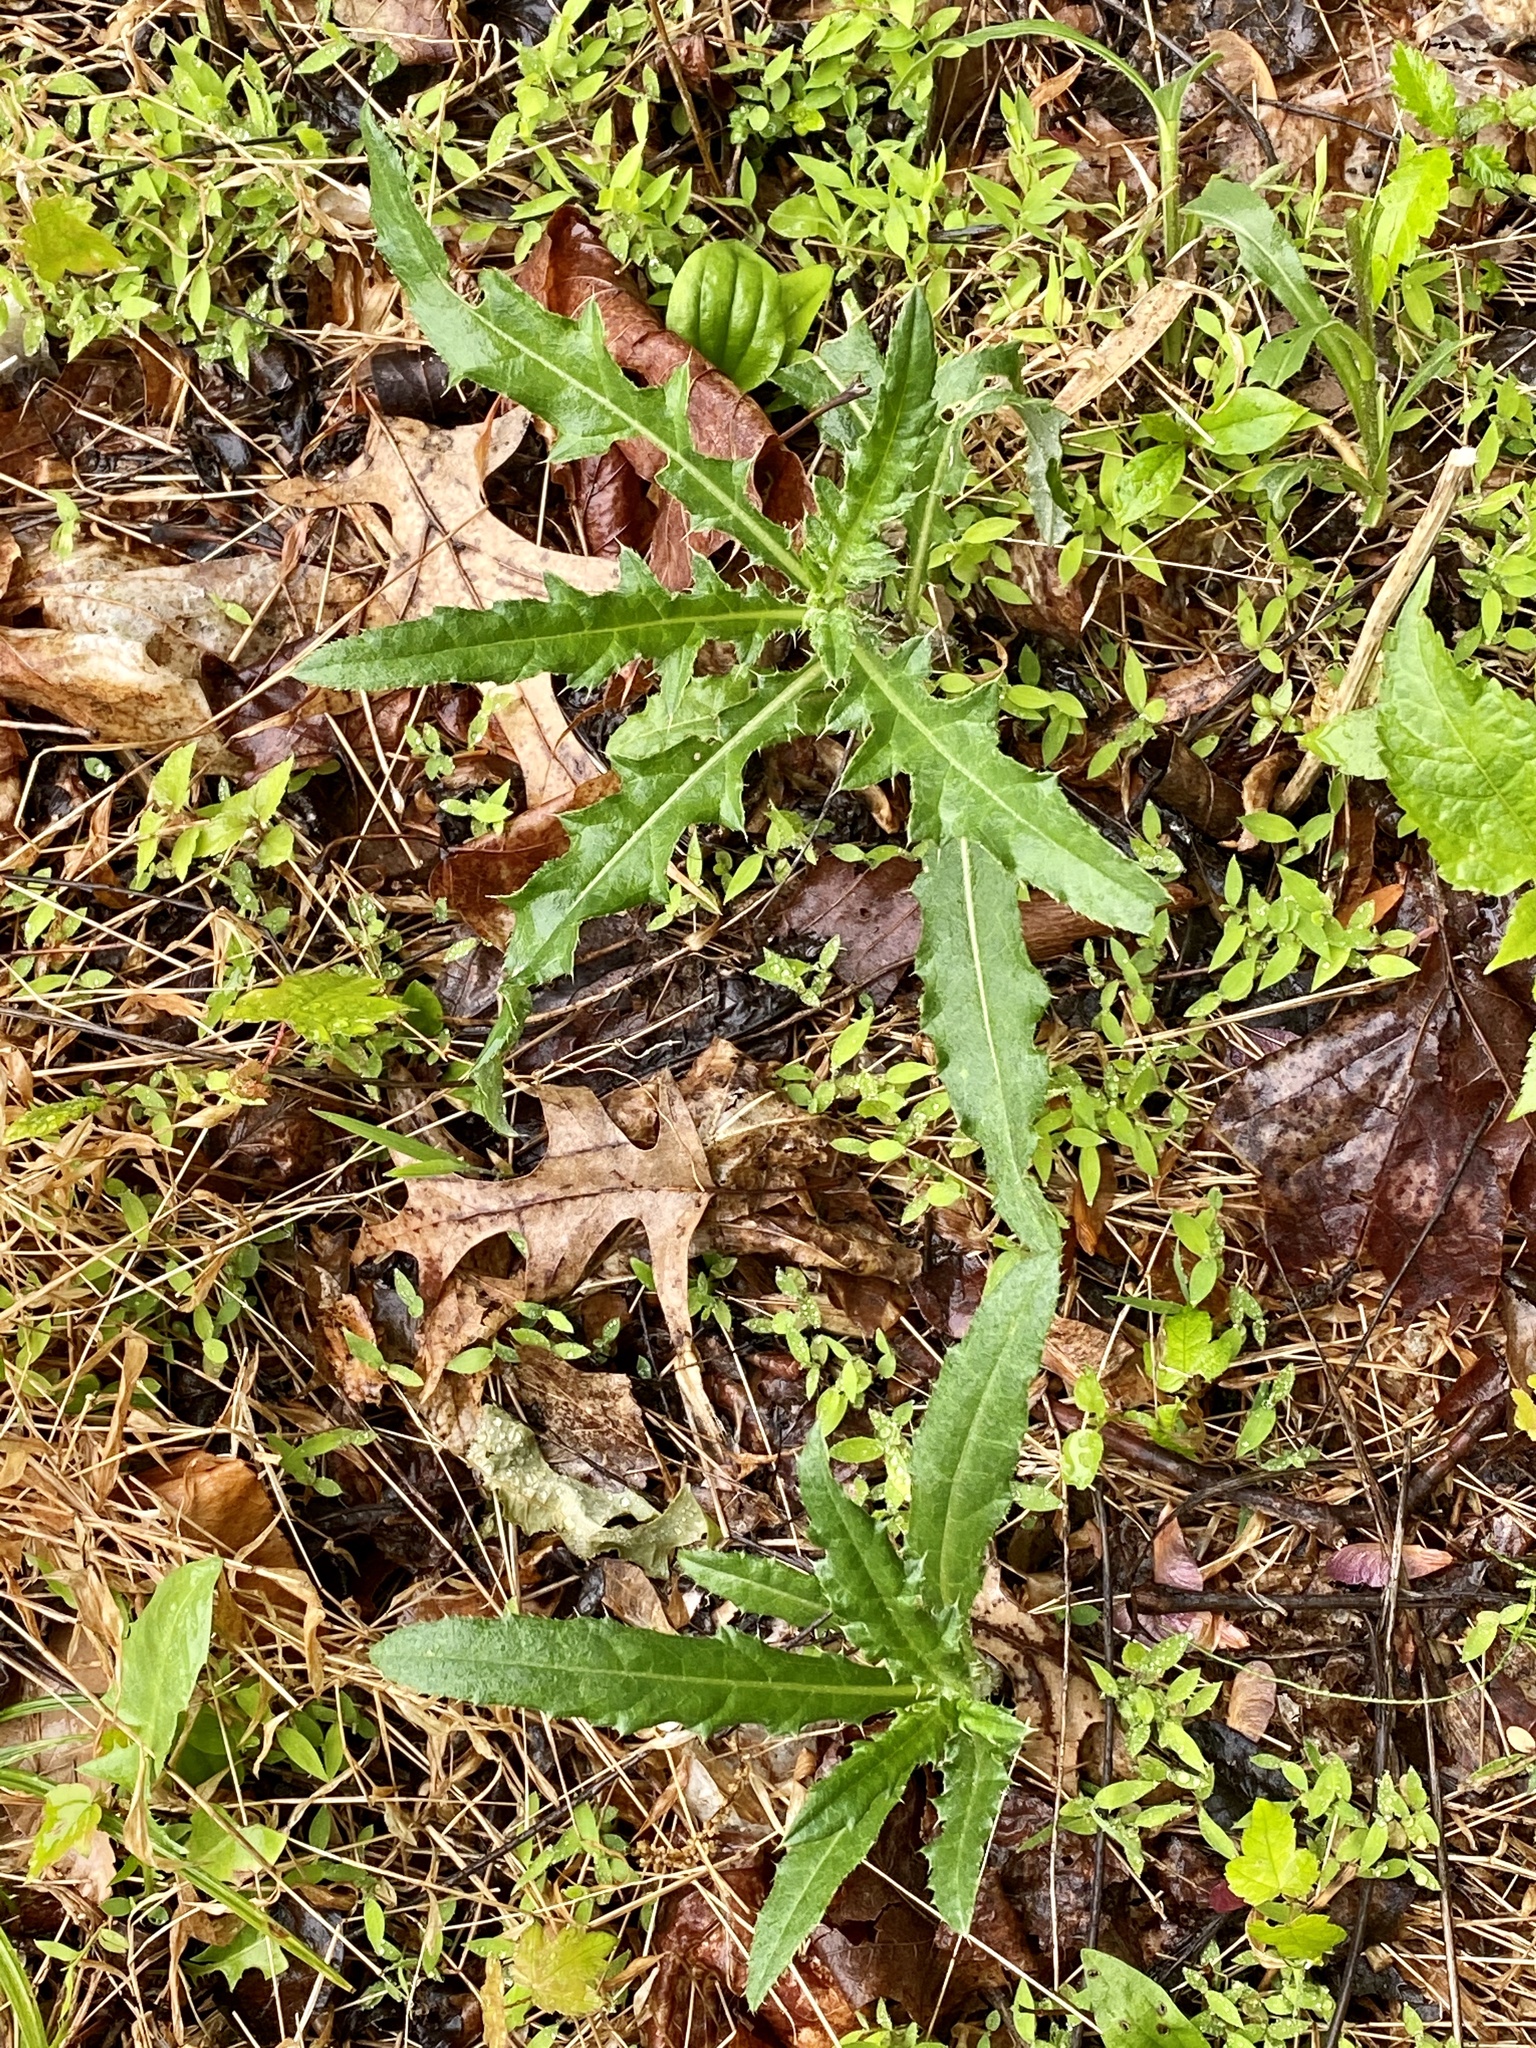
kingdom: Plantae
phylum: Tracheophyta
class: Magnoliopsida
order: Asterales
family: Asteraceae
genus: Cirsium
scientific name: Cirsium arvense
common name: Creeping thistle
